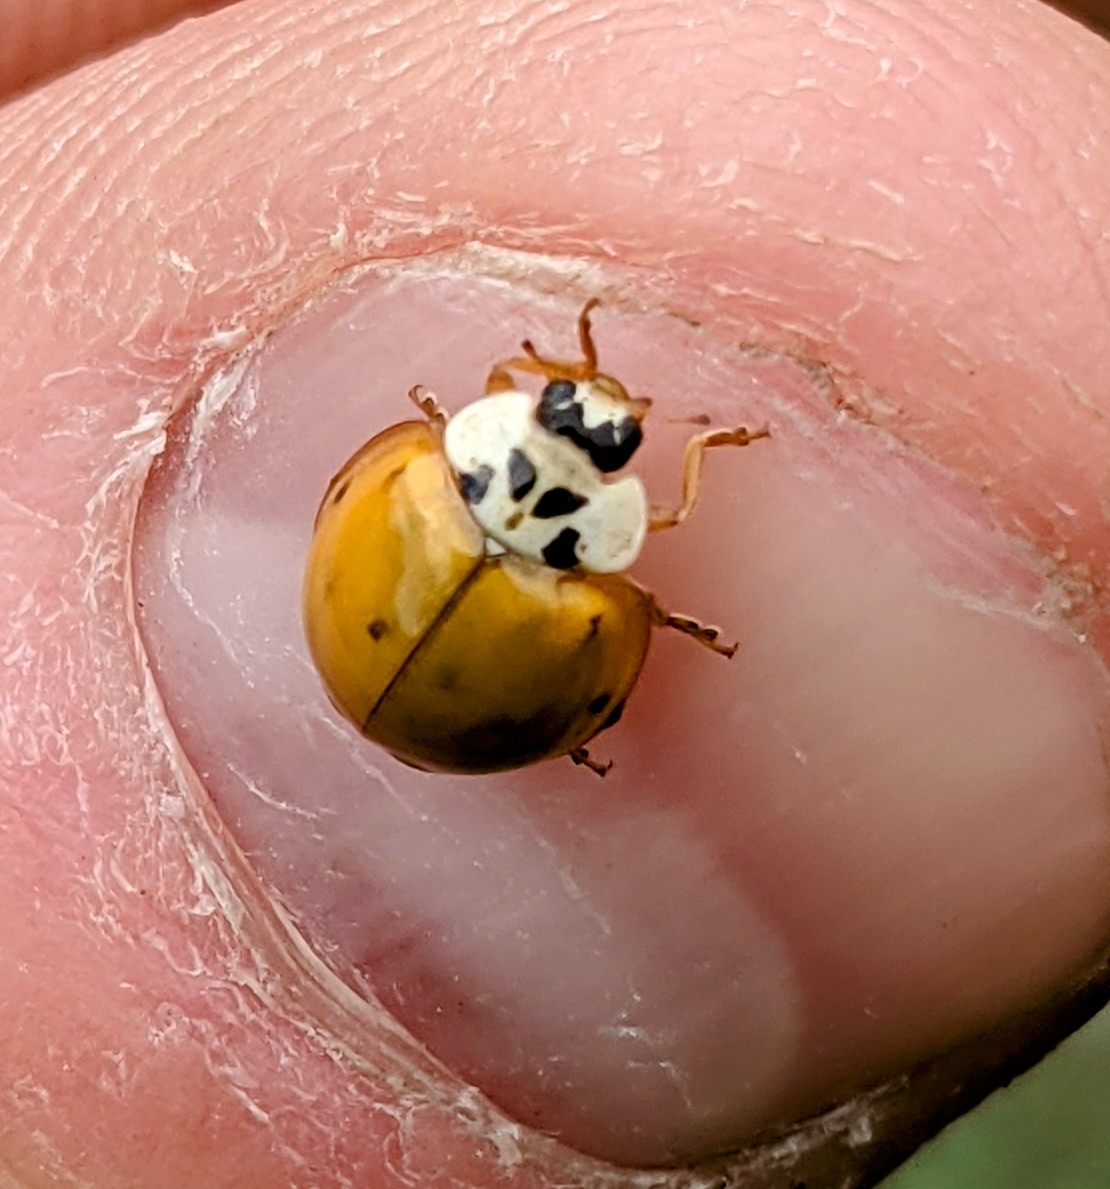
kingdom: Animalia
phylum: Arthropoda
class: Insecta
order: Coleoptera
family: Coccinellidae
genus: Harmonia
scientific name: Harmonia axyridis
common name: Harlequin ladybird
